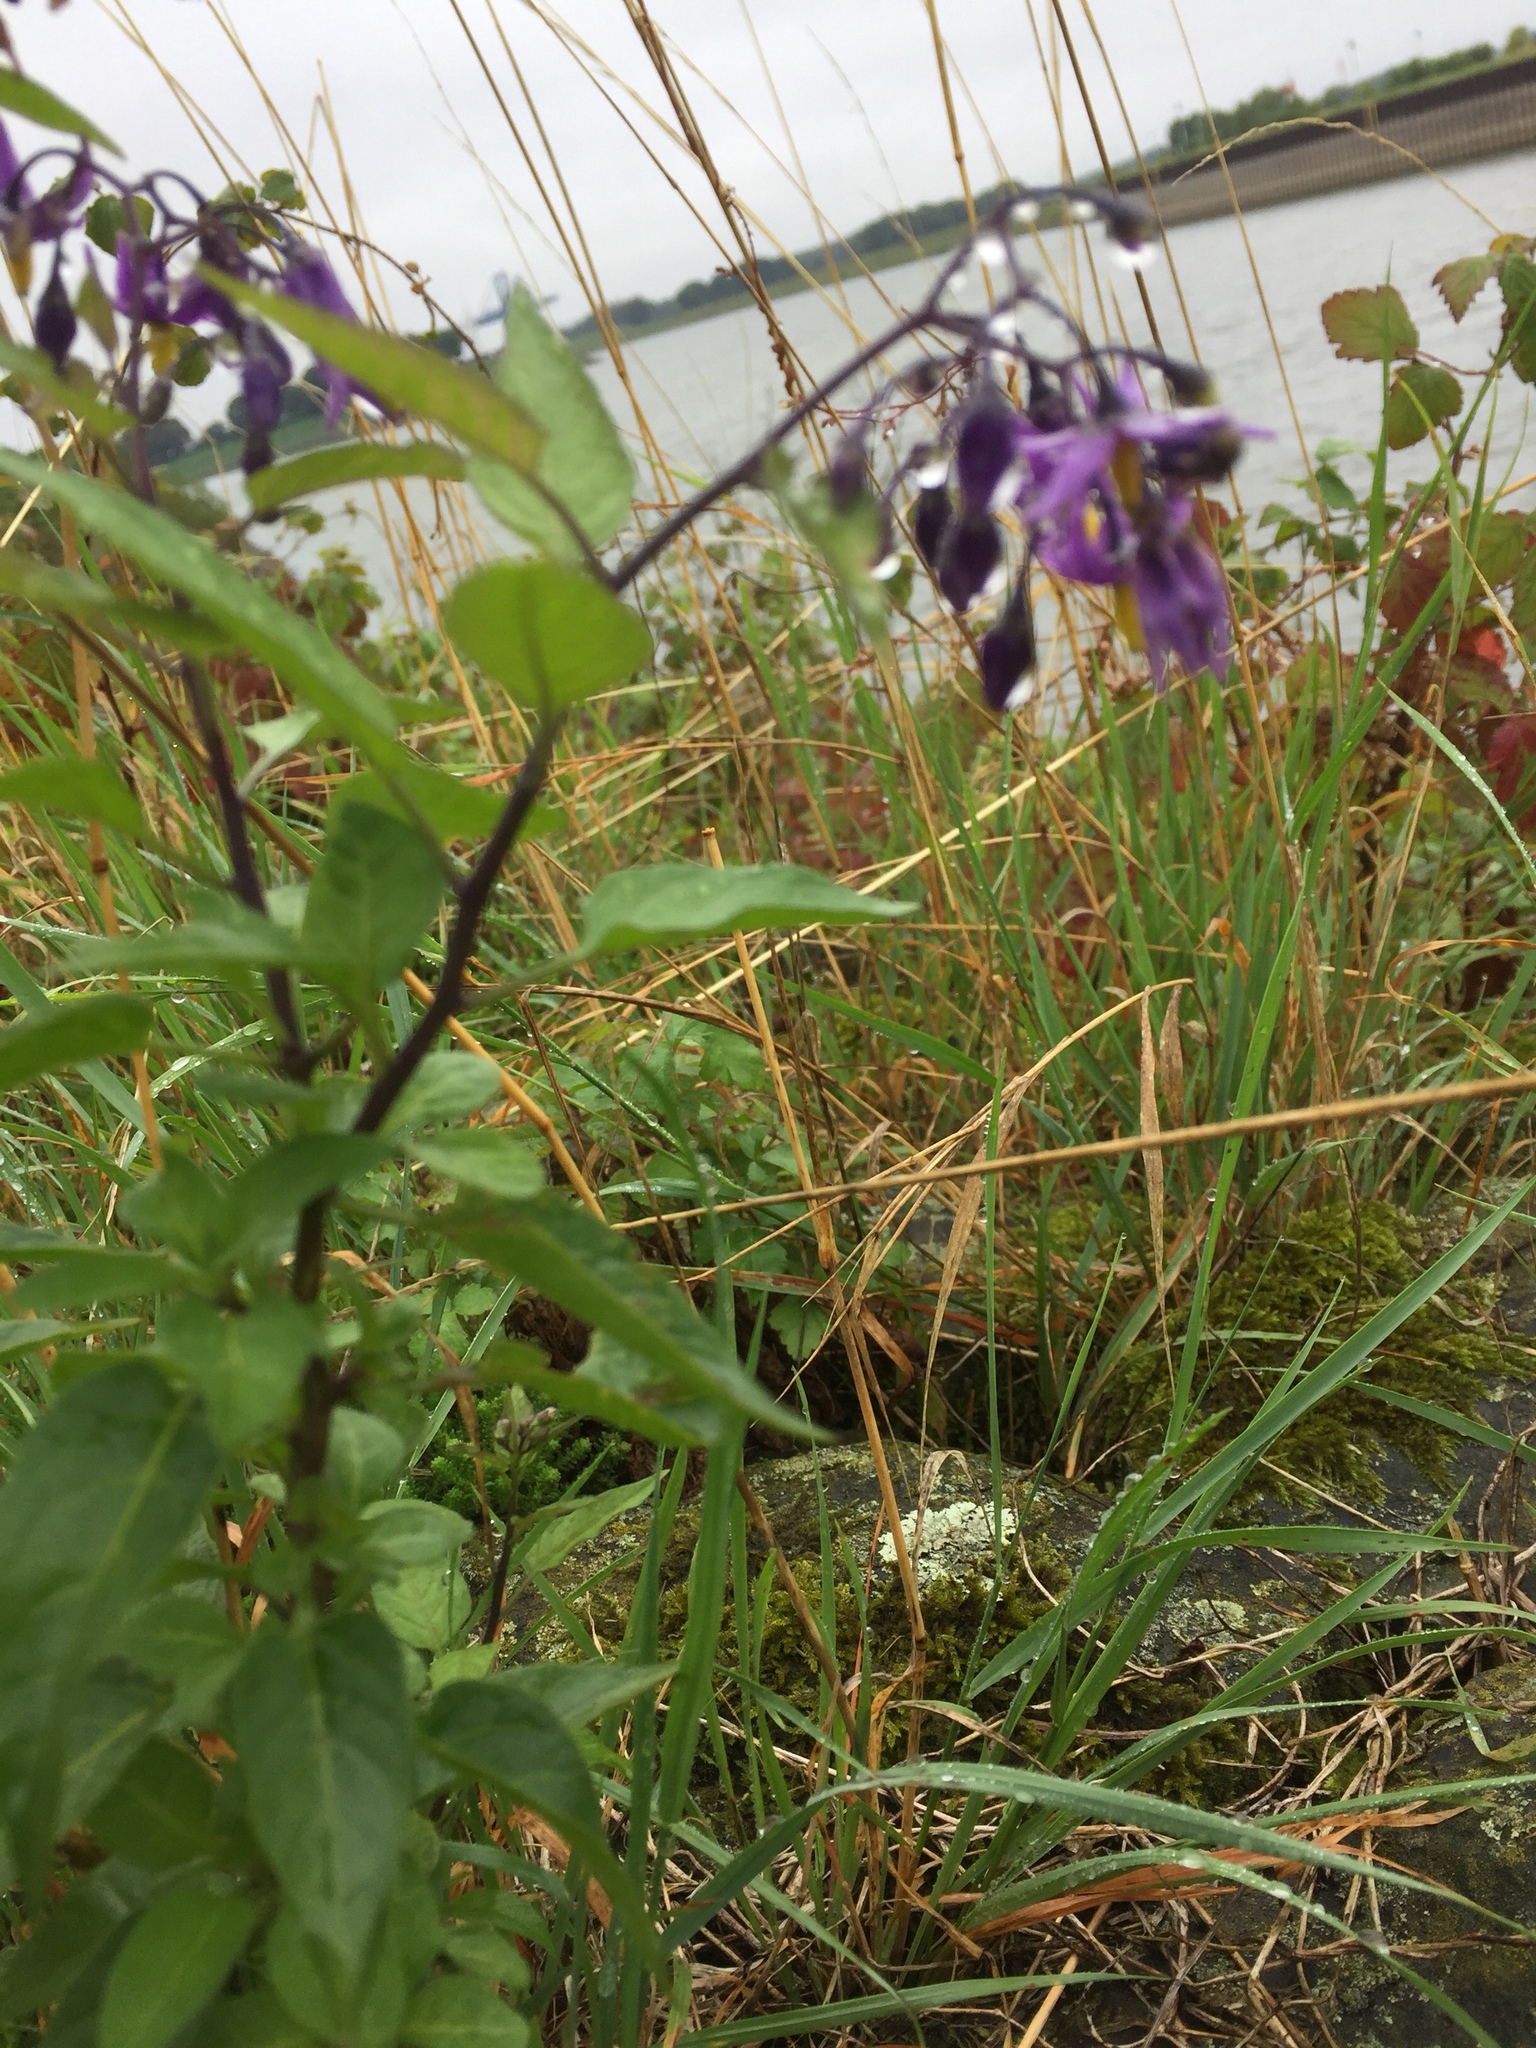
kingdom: Plantae
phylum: Tracheophyta
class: Magnoliopsida
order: Solanales
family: Solanaceae
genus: Solanum
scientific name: Solanum dulcamara
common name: Climbing nightshade
